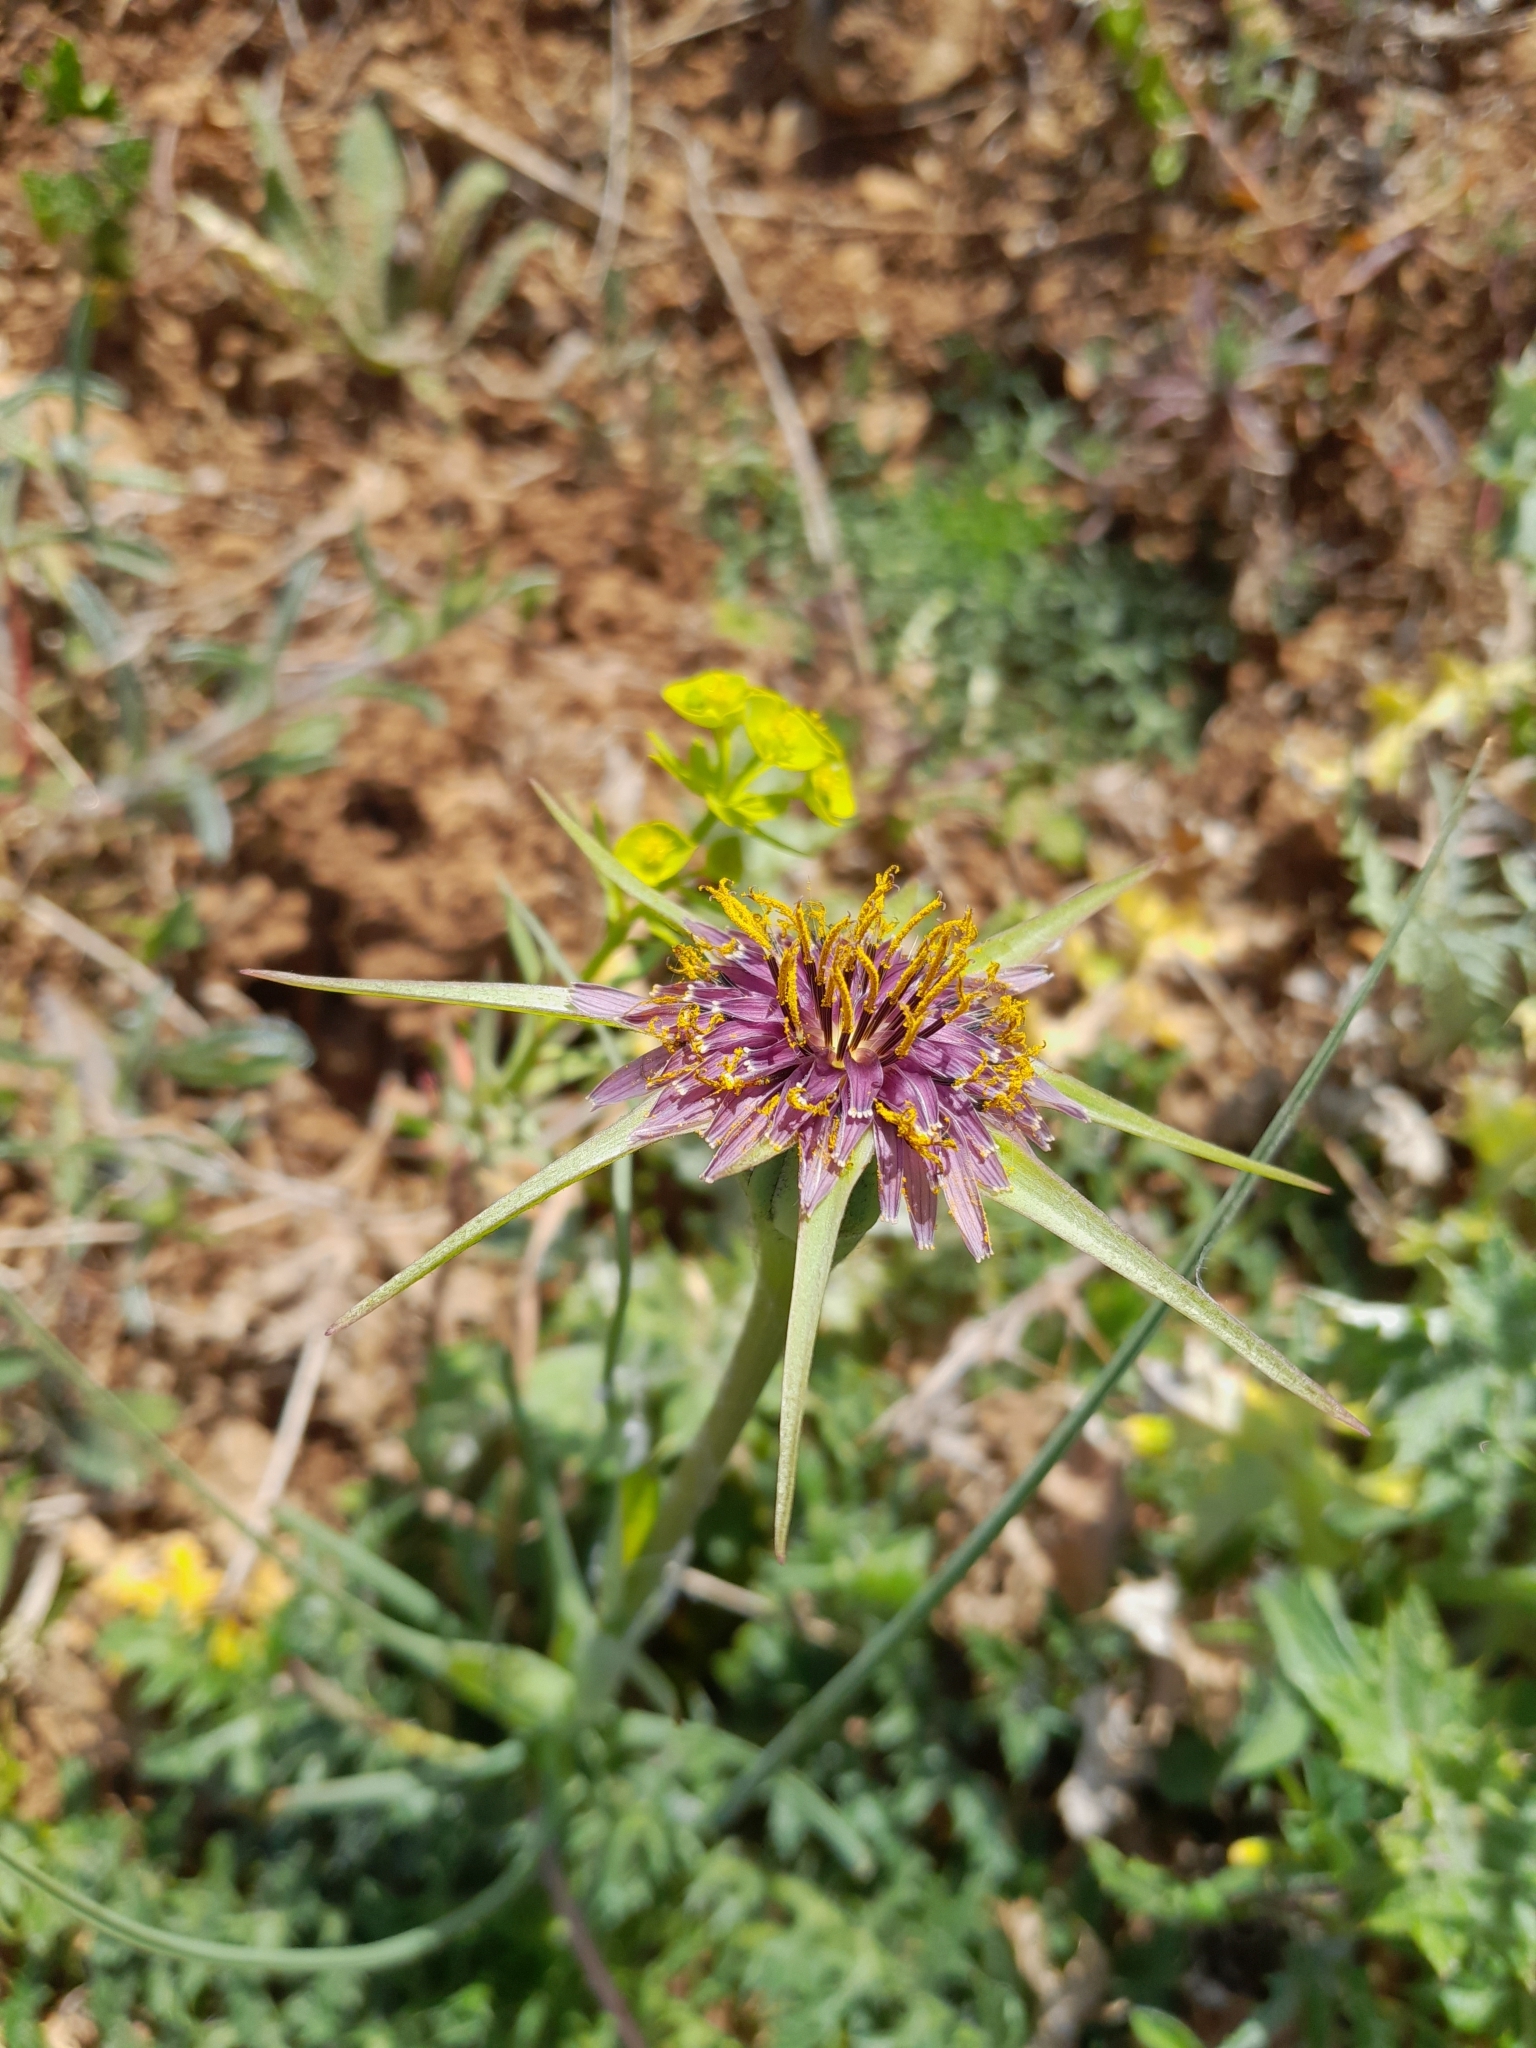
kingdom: Plantae
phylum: Tracheophyta
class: Magnoliopsida
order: Asterales
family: Asteraceae
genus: Tragopogon
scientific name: Tragopogon porrifolius
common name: Salsify
